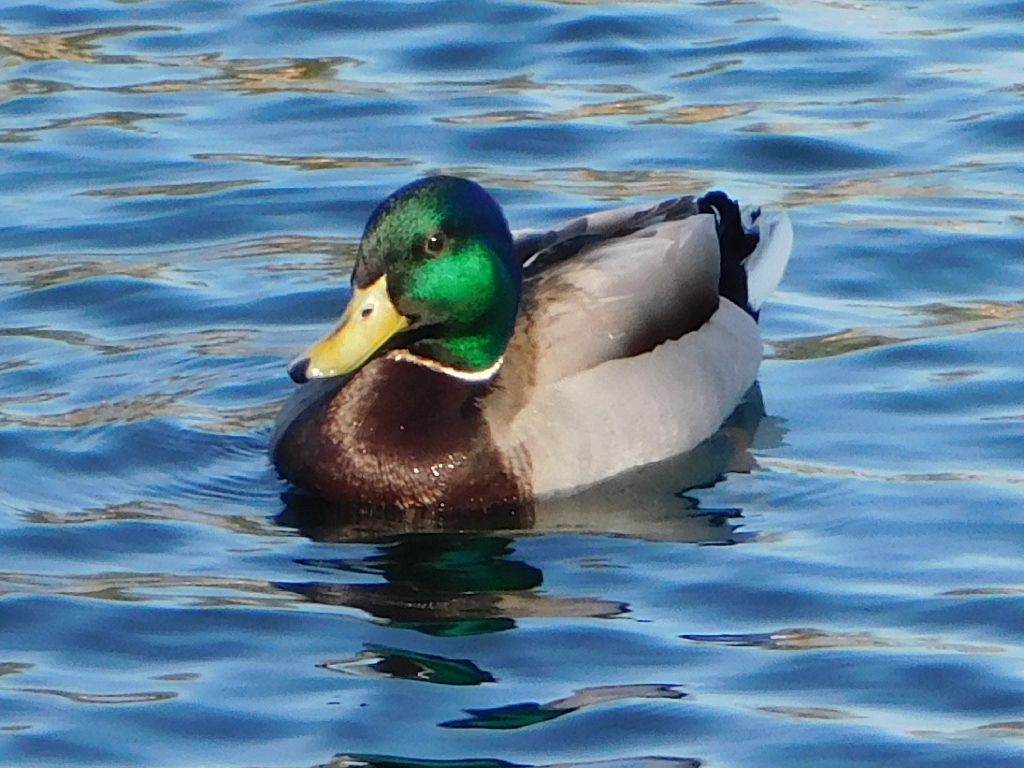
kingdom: Animalia
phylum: Chordata
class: Aves
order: Anseriformes
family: Anatidae
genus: Anas
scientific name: Anas platyrhynchos
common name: Mallard
